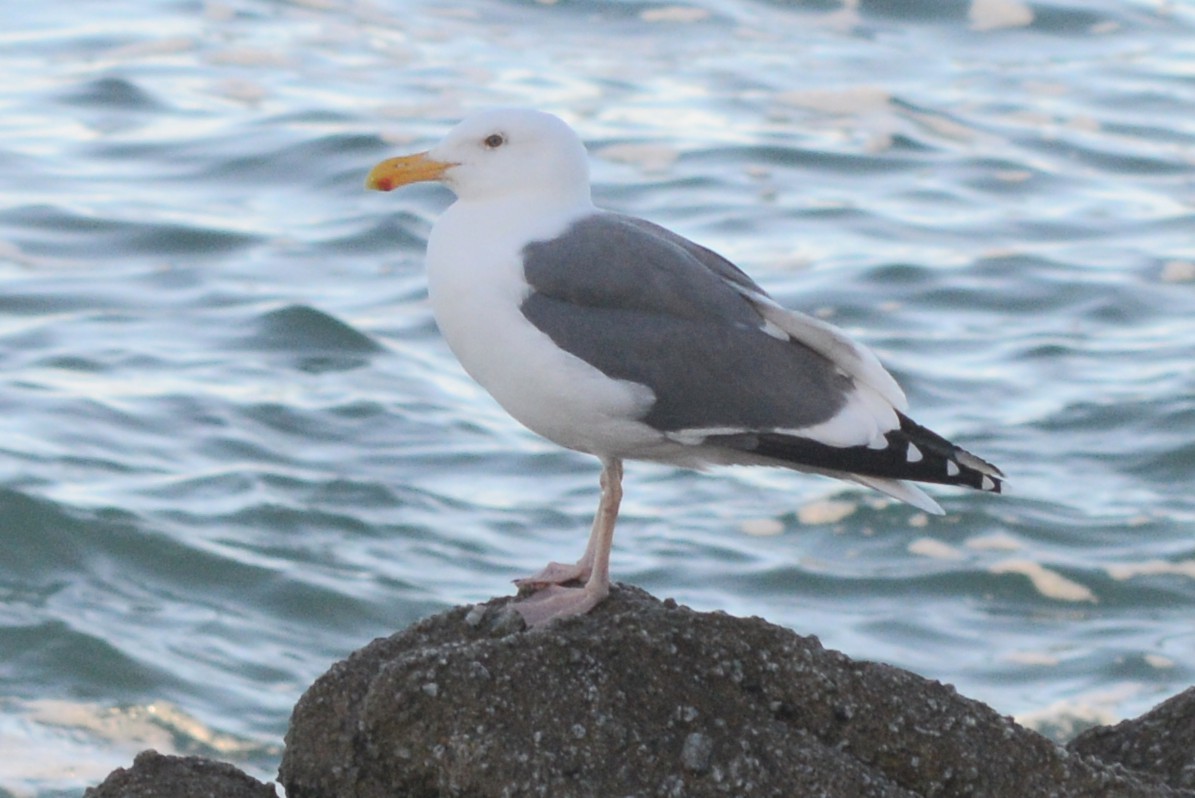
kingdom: Animalia
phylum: Chordata
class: Aves
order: Charadriiformes
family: Laridae
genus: Larus
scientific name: Larus occidentalis
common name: Western gull
